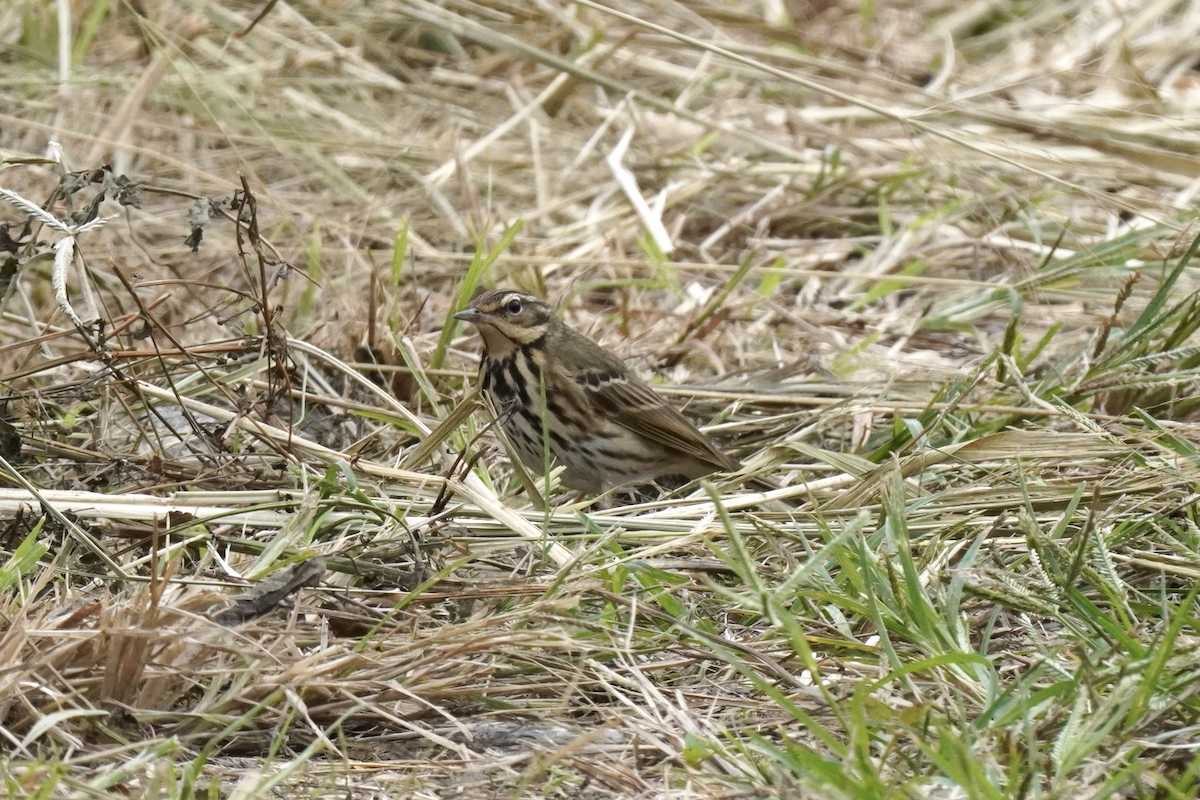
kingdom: Animalia
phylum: Chordata
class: Aves
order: Passeriformes
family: Motacillidae
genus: Anthus
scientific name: Anthus hodgsoni
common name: Olive-backed pipit
